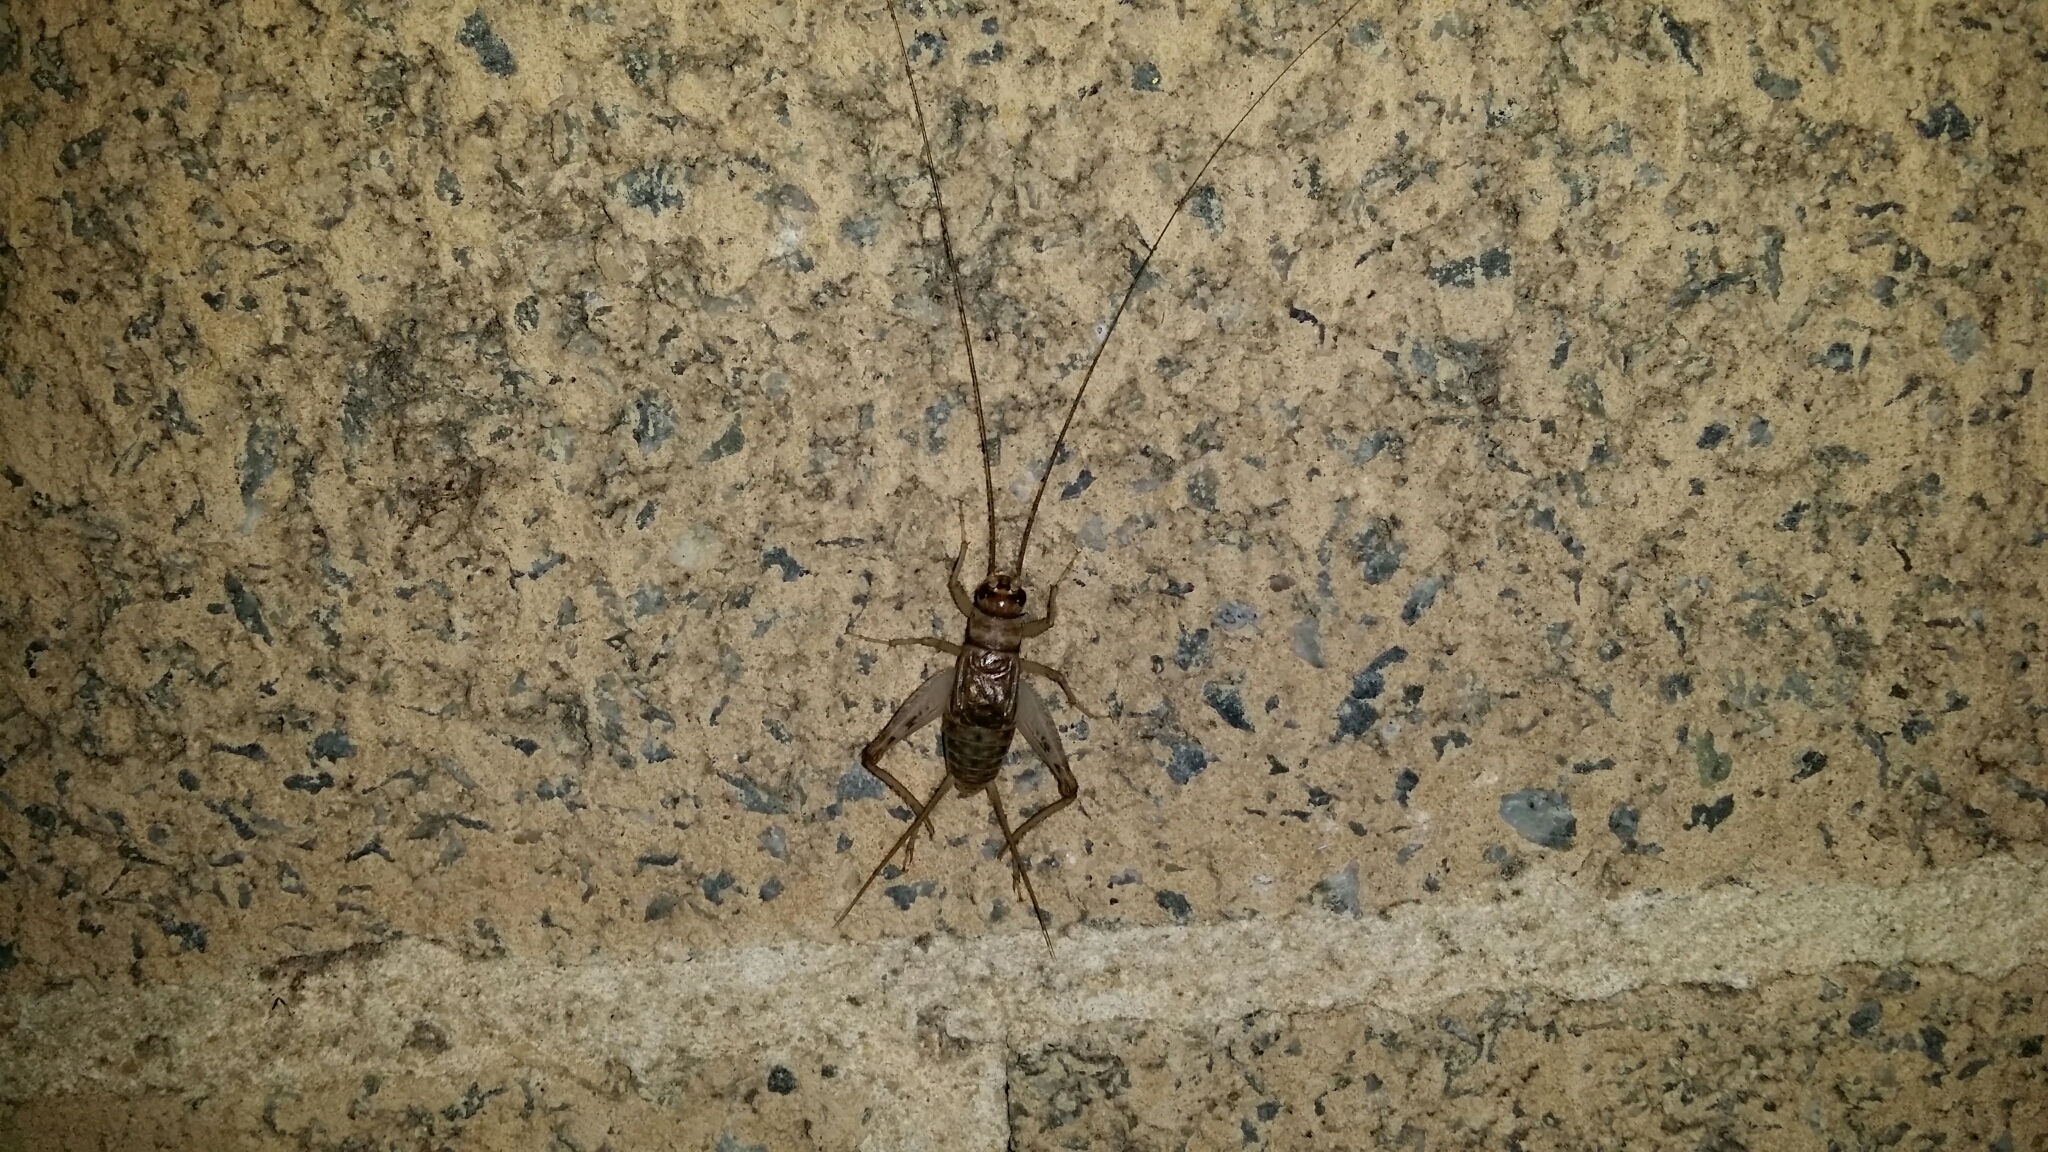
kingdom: Animalia
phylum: Arthropoda
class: Insecta
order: Orthoptera
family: Gryllidae
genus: Gryllodes
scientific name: Gryllodes sigillatus
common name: Tropical house cricket
